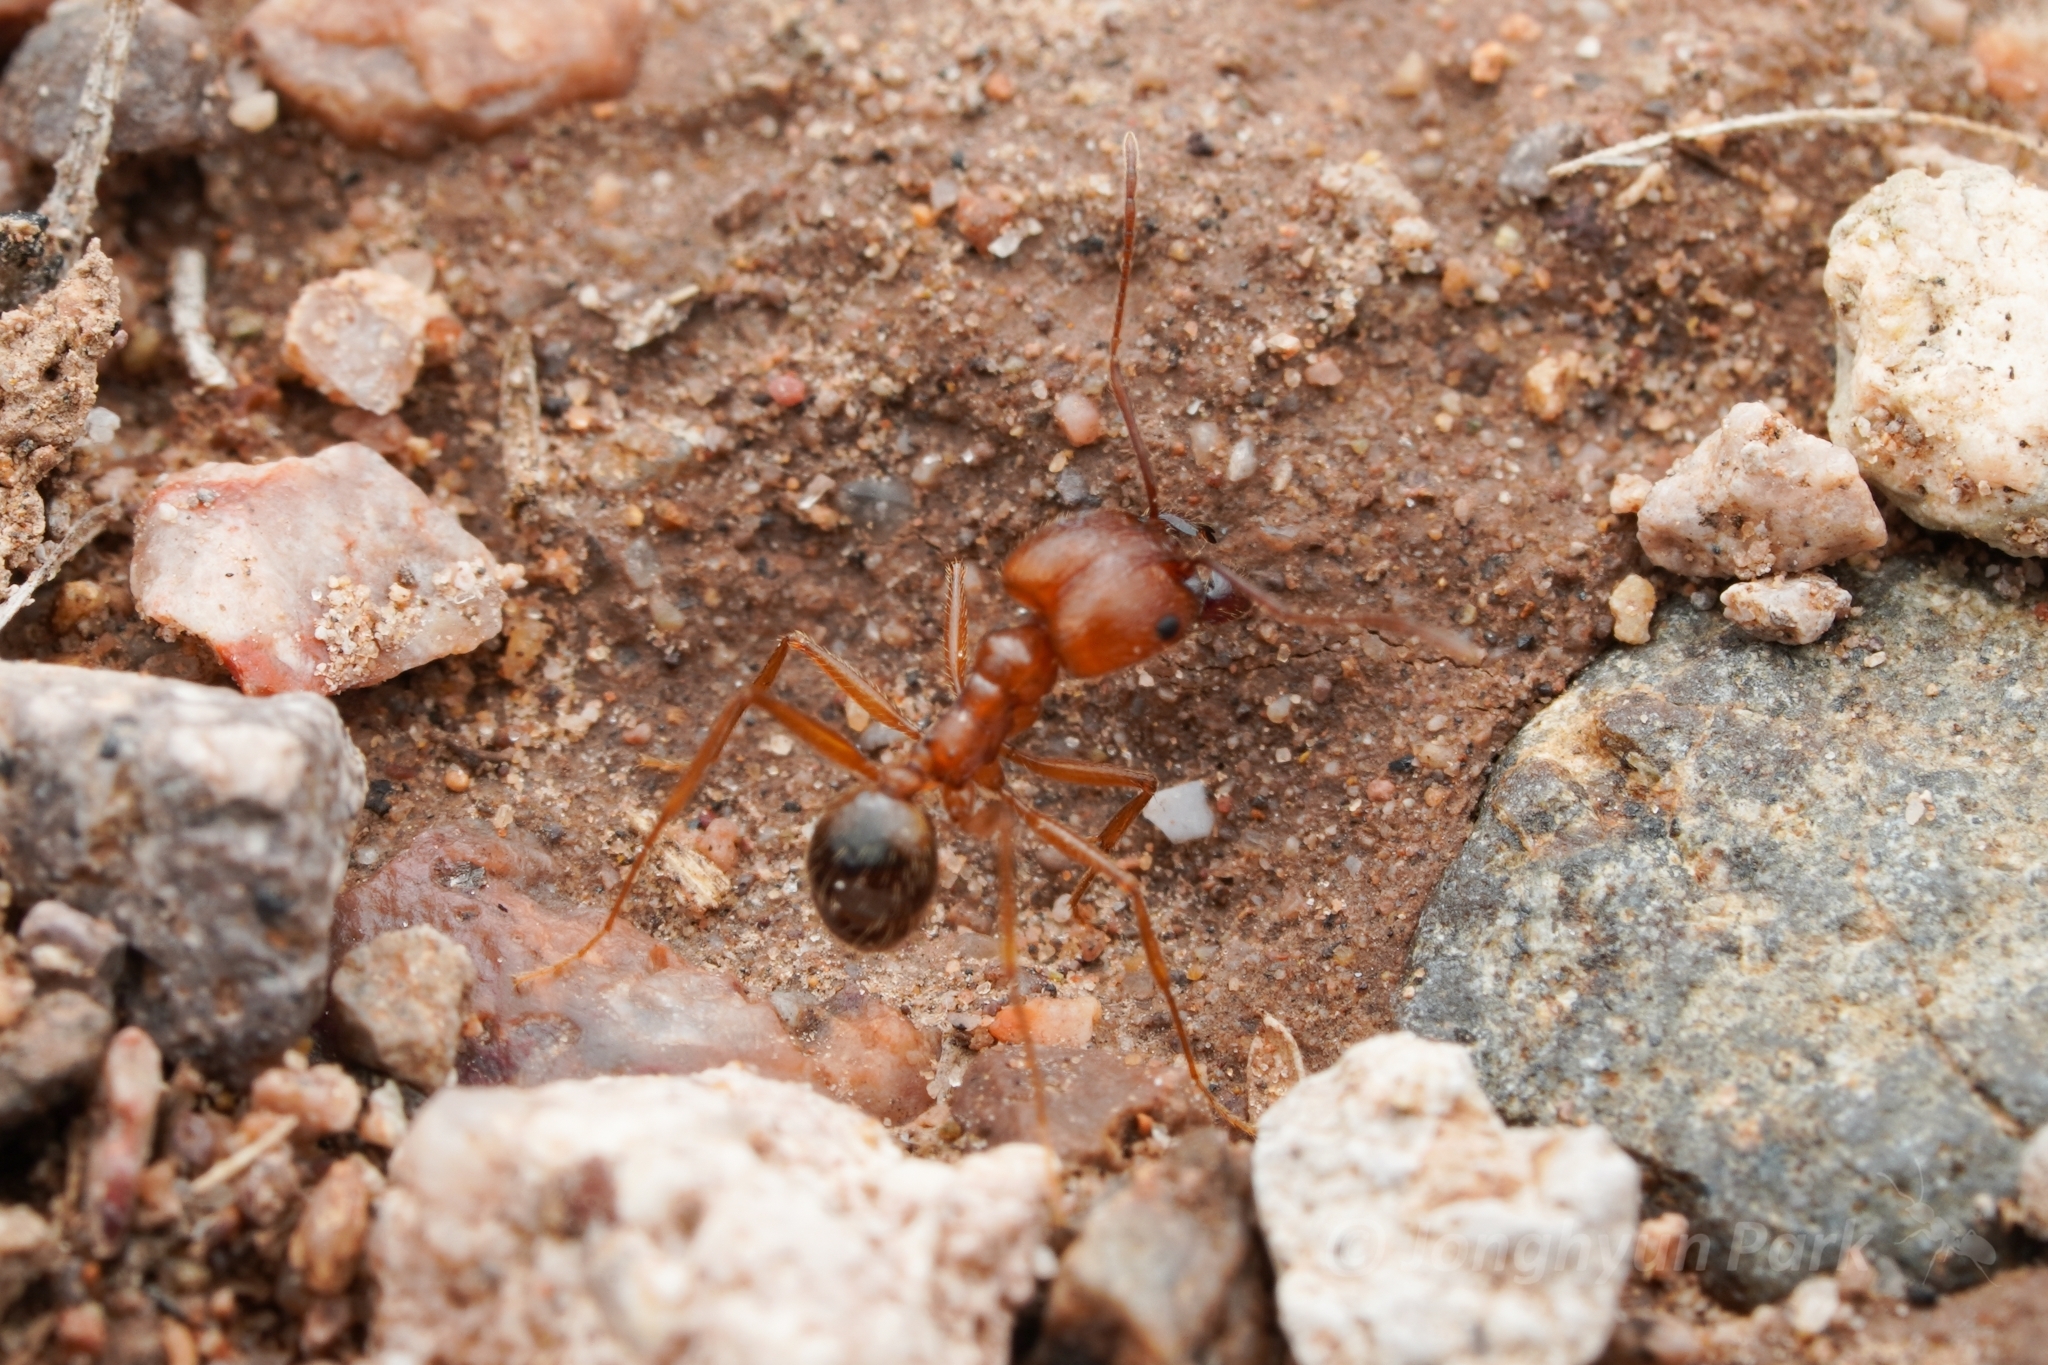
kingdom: Animalia
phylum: Arthropoda
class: Insecta
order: Hymenoptera
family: Formicidae
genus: Pheidole
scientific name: Pheidole desertorum
